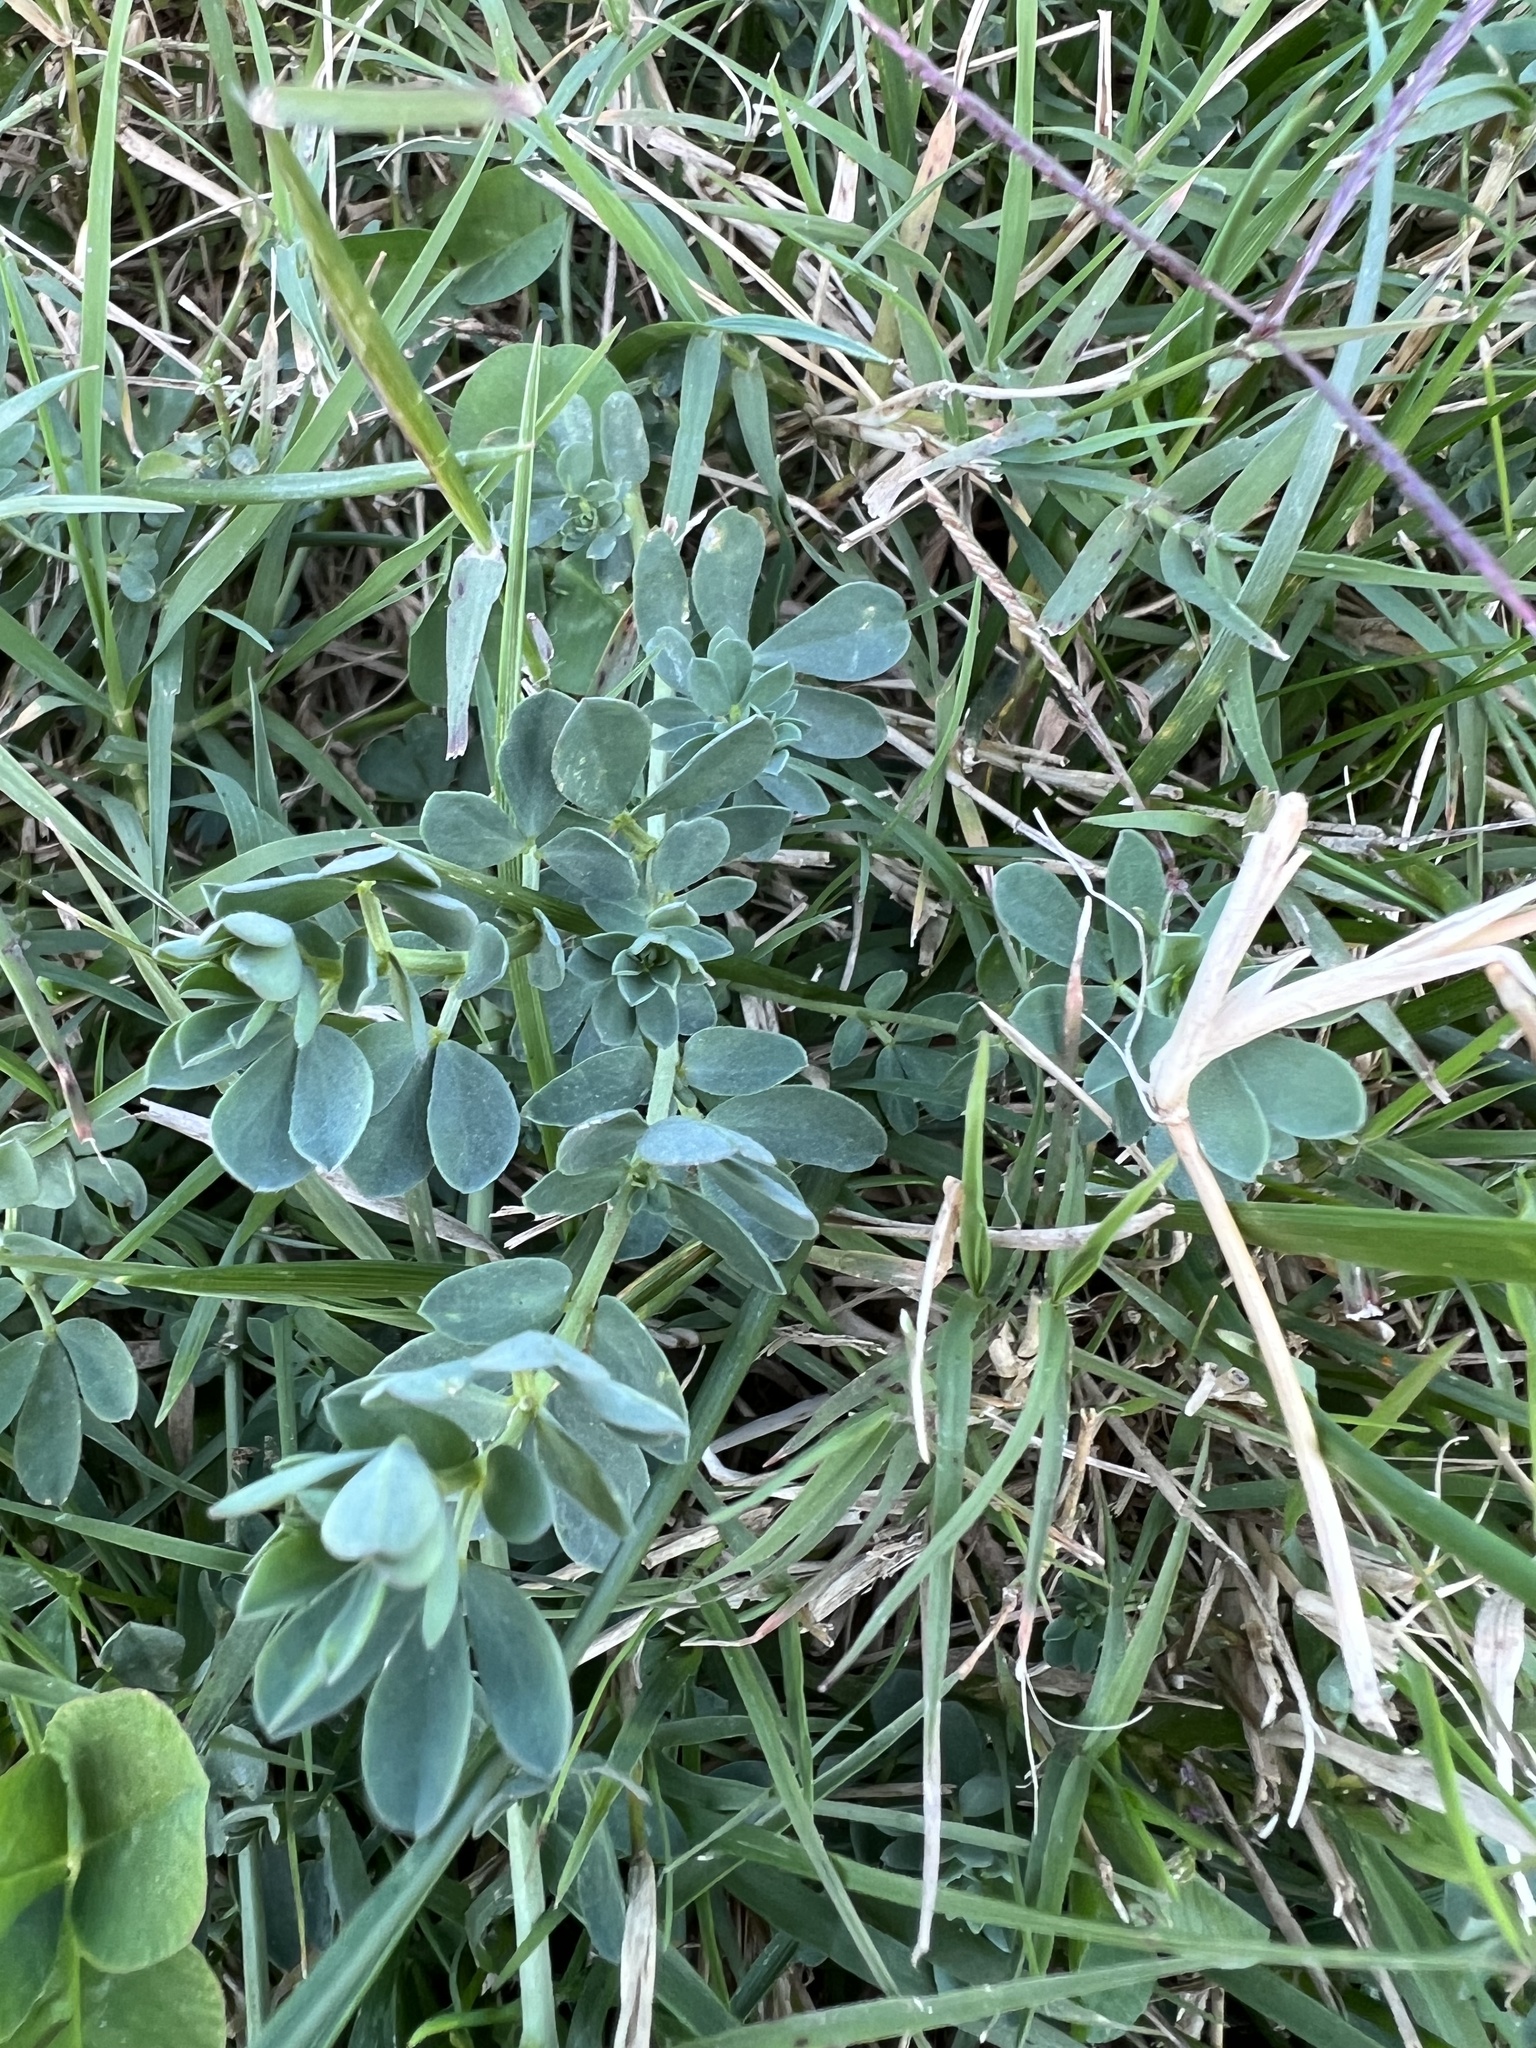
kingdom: Plantae
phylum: Tracheophyta
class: Magnoliopsida
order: Fabales
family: Fabaceae
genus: Lotus
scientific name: Lotus corniculatus
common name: Common bird's-foot-trefoil
